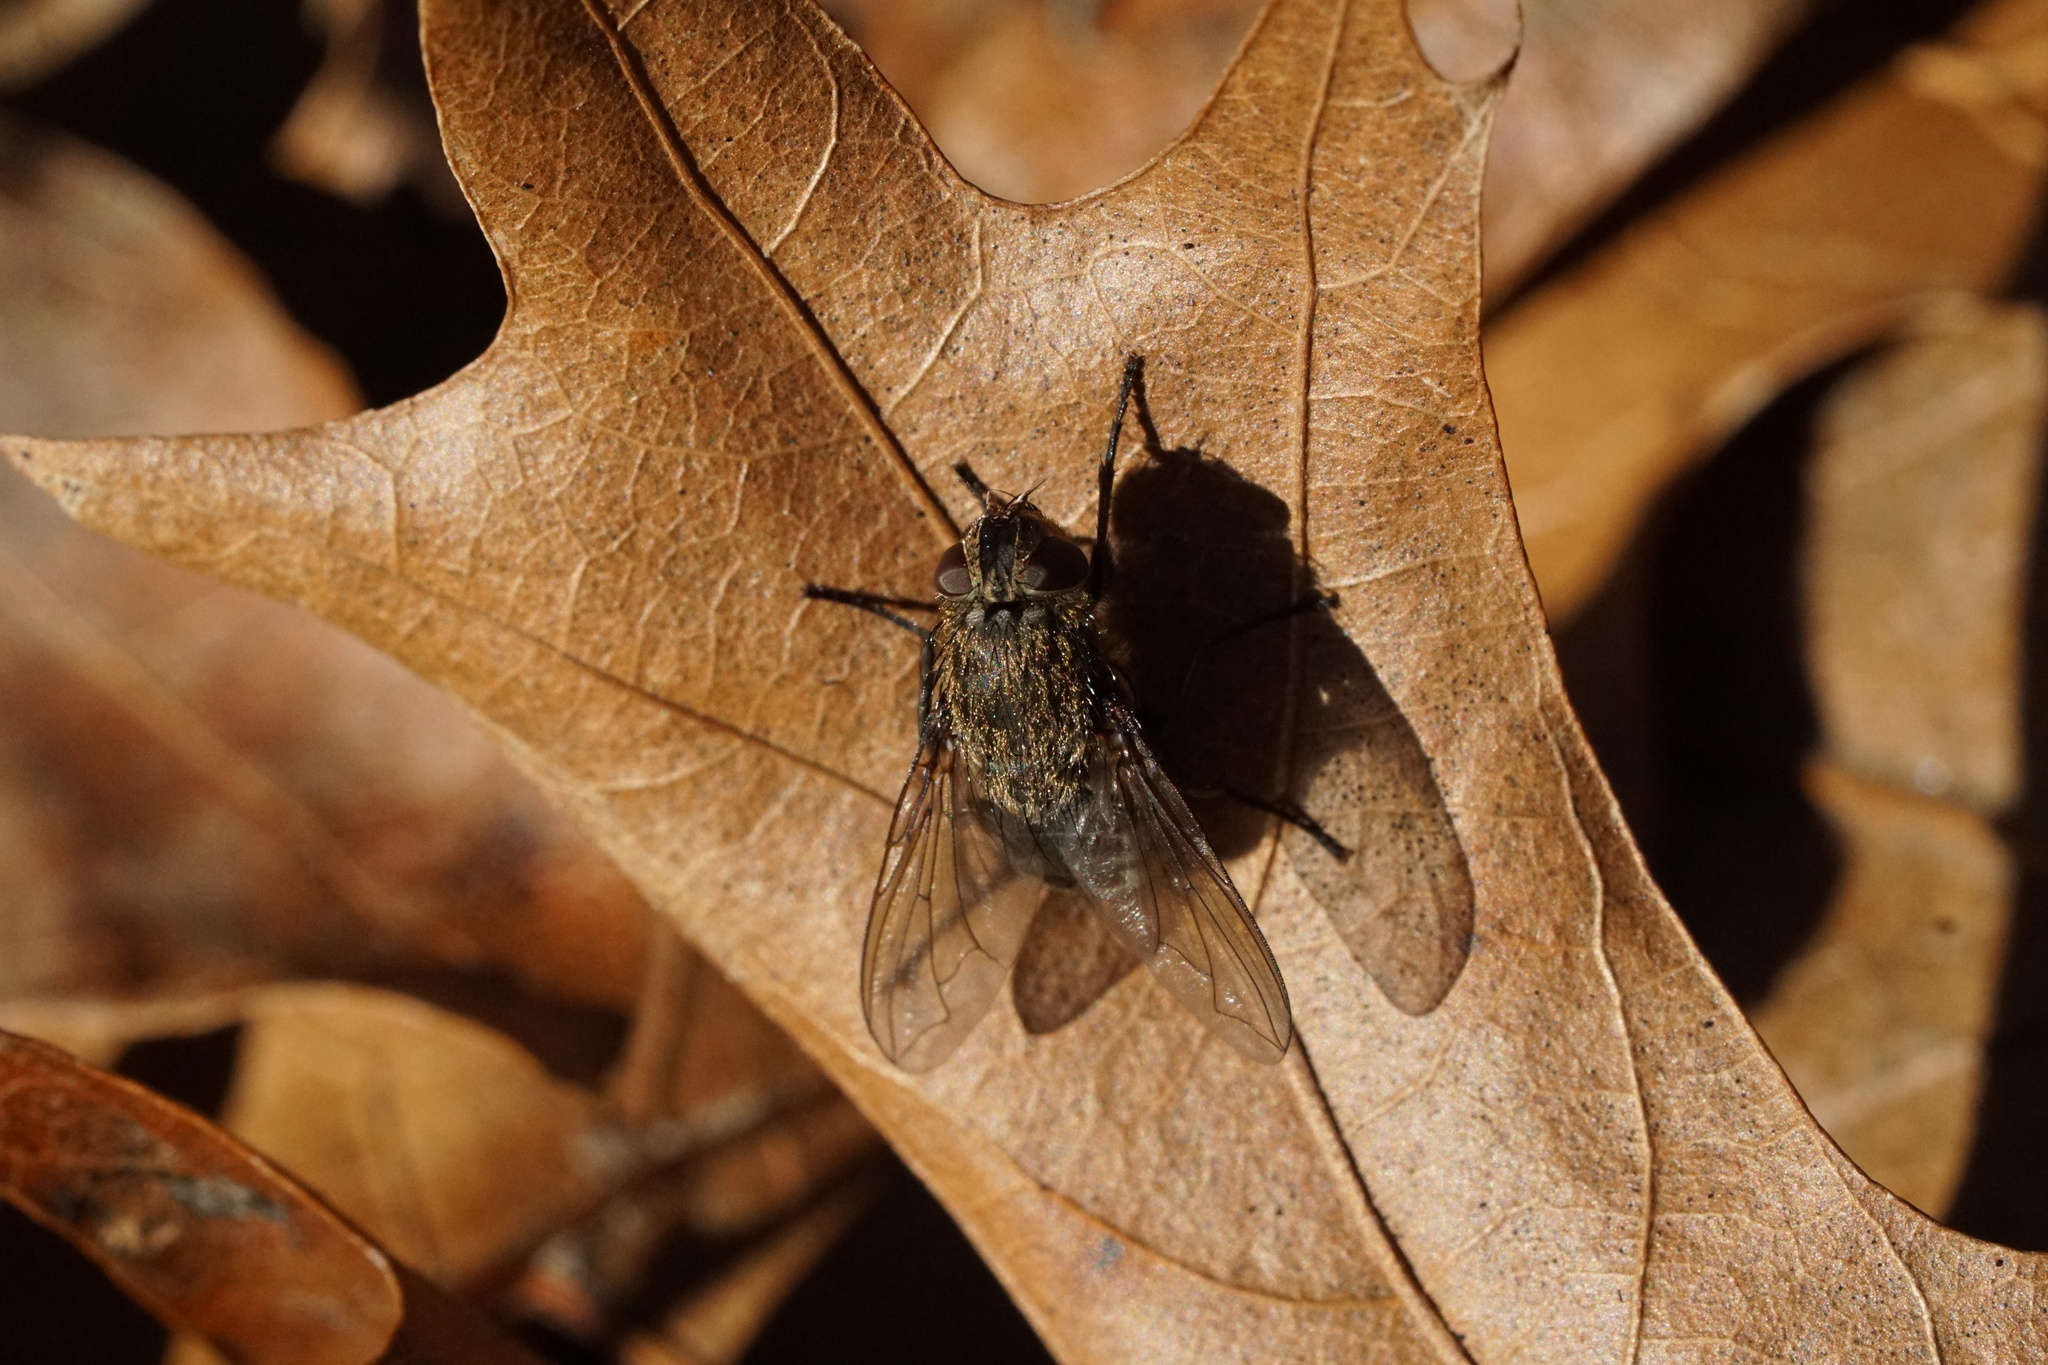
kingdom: Animalia
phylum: Arthropoda
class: Insecta
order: Diptera
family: Polleniidae
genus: Pollenia
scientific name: Pollenia
